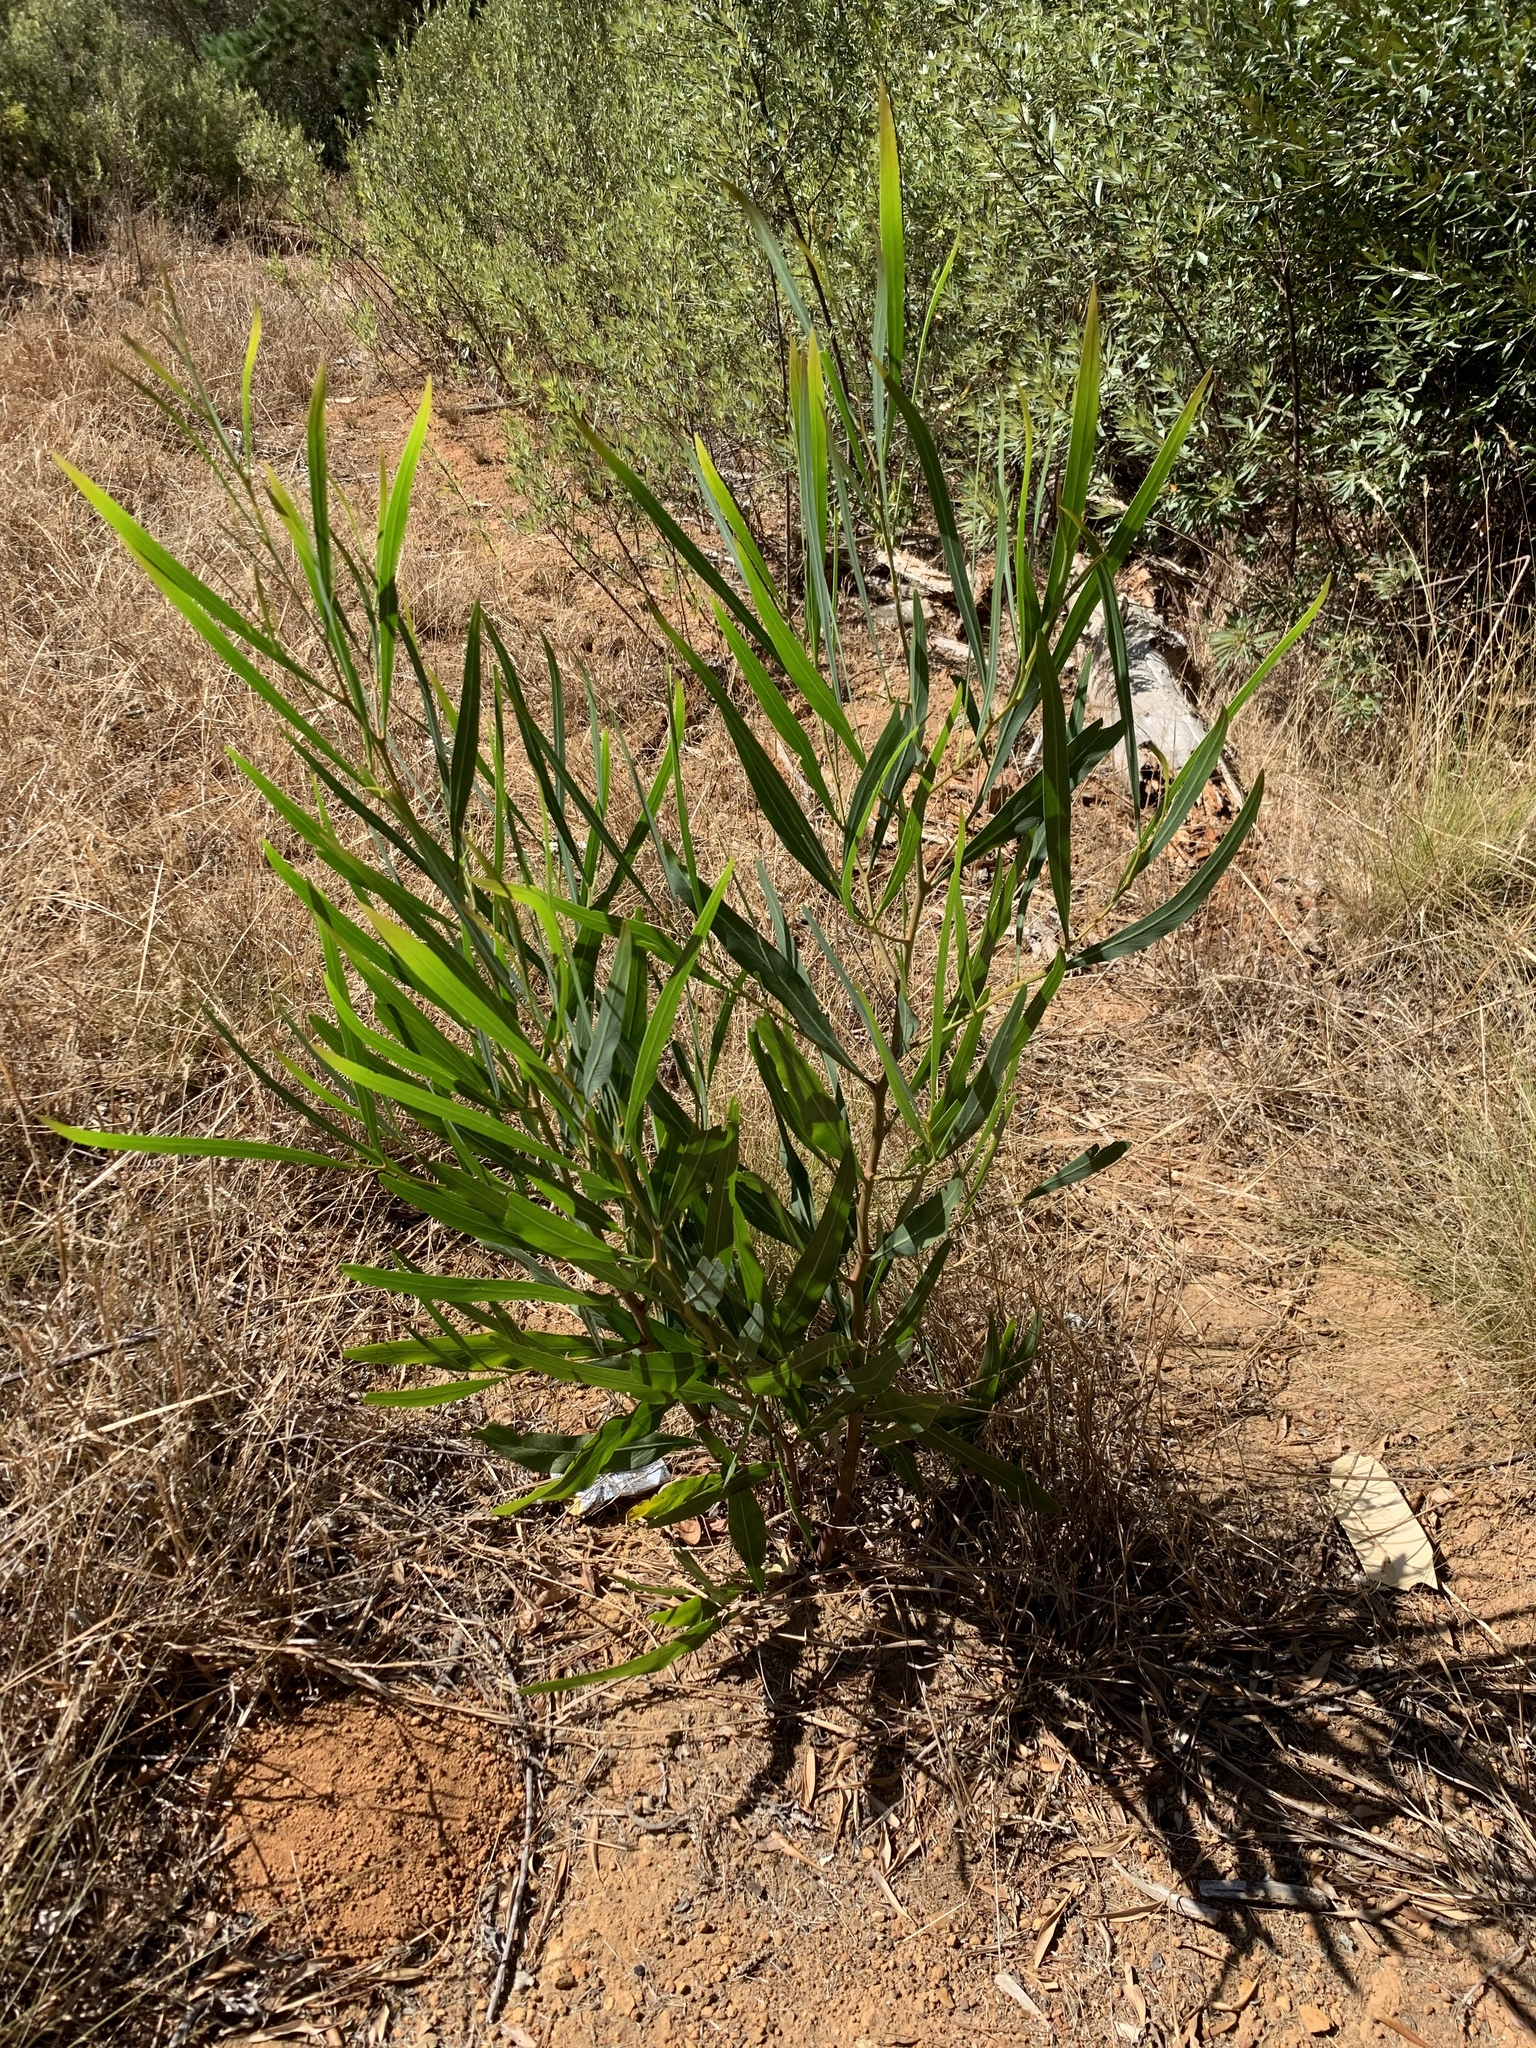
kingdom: Plantae
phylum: Tracheophyta
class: Magnoliopsida
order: Fabales
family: Fabaceae
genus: Acacia
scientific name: Acacia saligna
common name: Orange wattle
